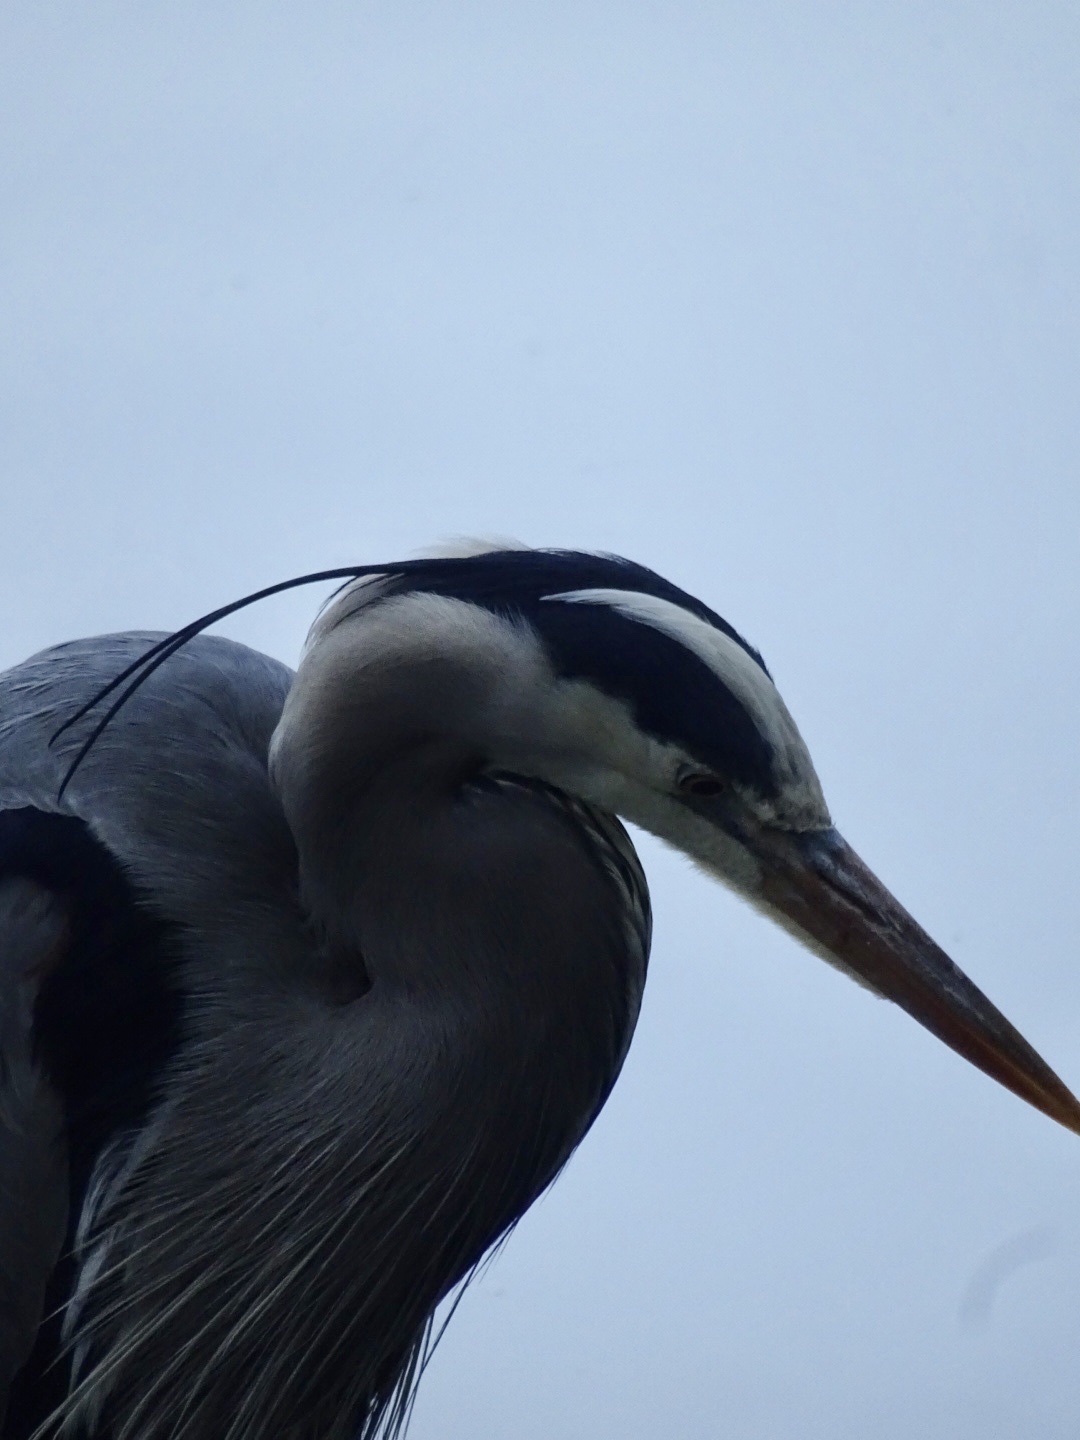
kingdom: Animalia
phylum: Chordata
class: Aves
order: Pelecaniformes
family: Ardeidae
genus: Ardea
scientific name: Ardea herodias
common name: Great blue heron
